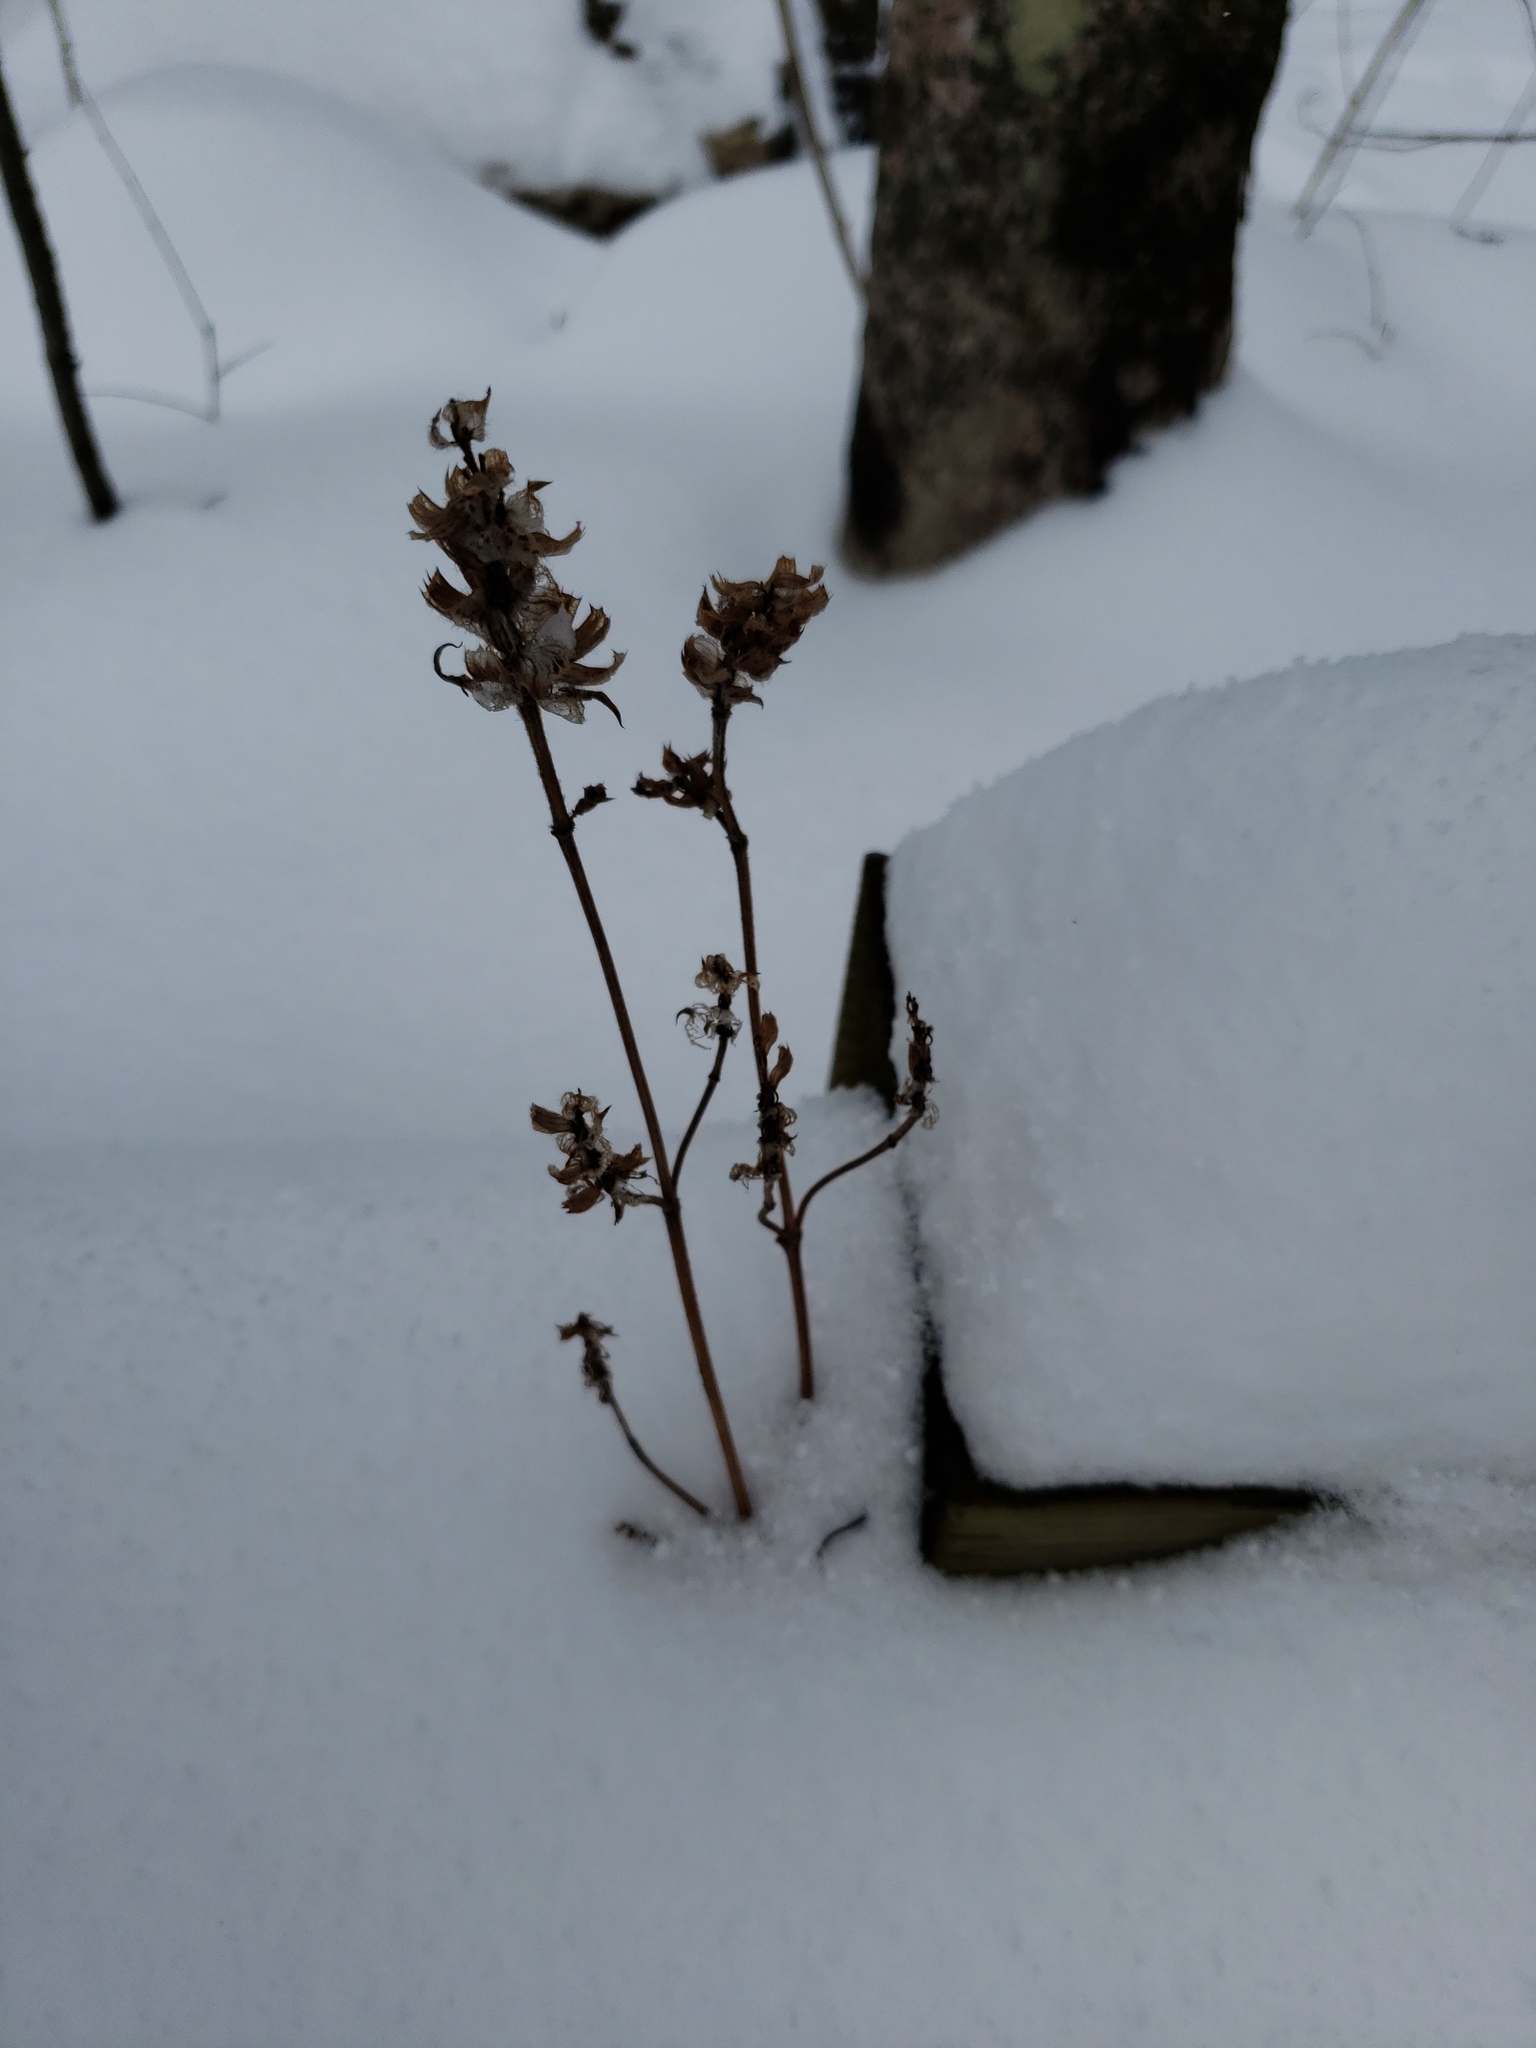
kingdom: Plantae
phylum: Tracheophyta
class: Magnoliopsida
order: Lamiales
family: Lamiaceae
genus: Prunella
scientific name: Prunella vulgaris
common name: Heal-all
